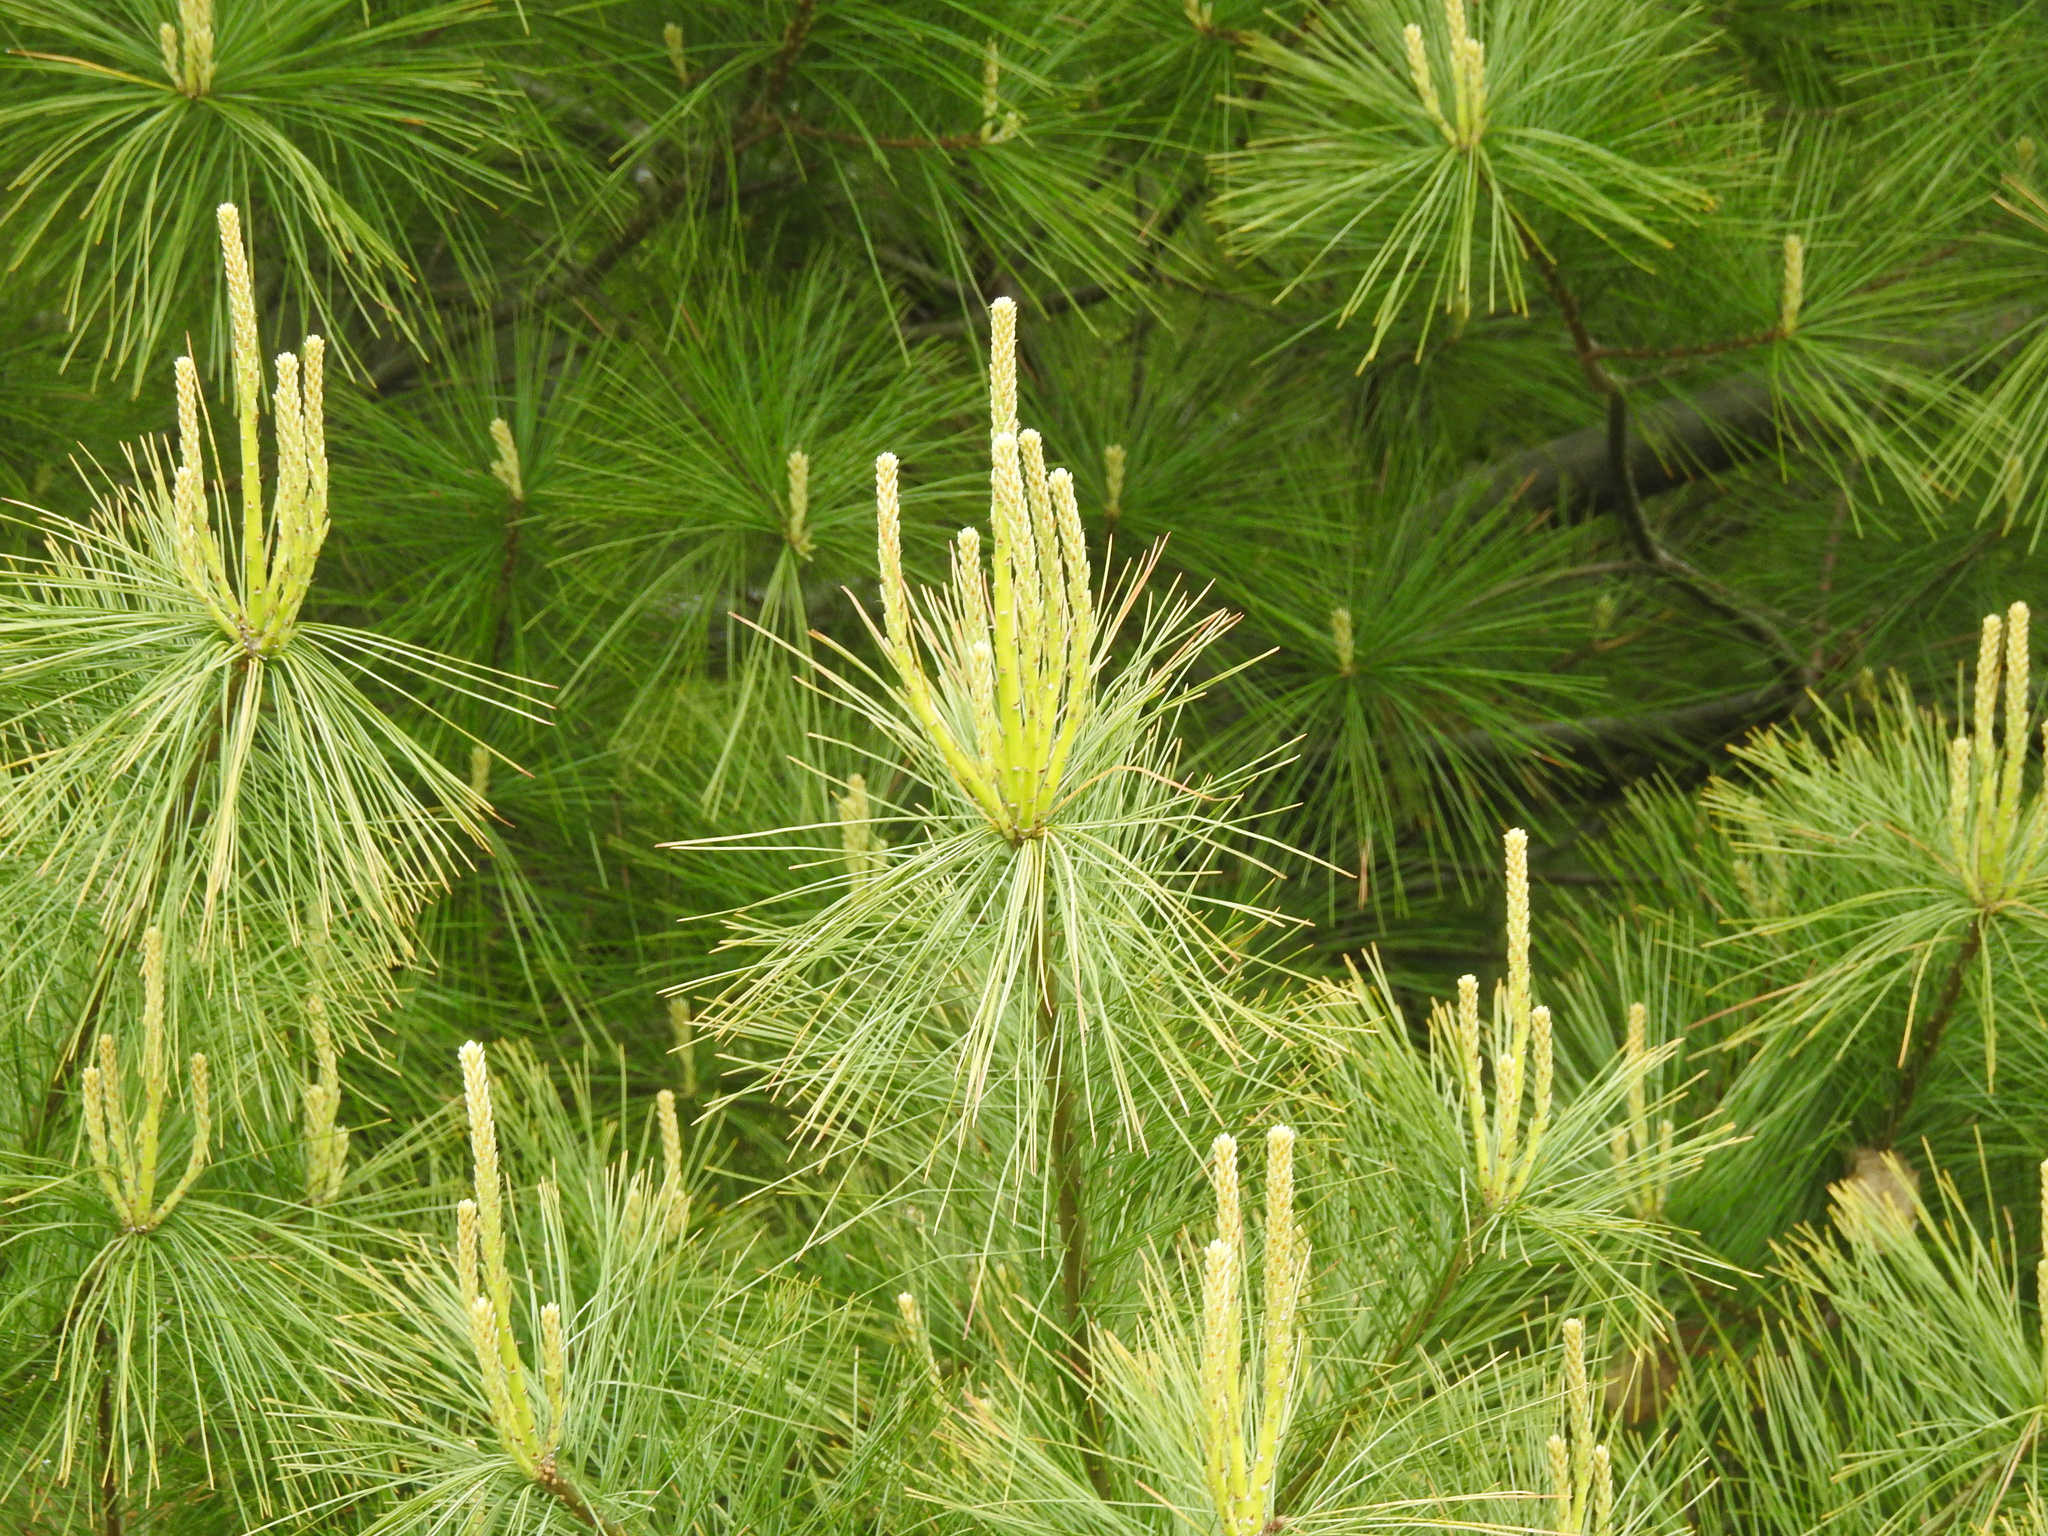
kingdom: Plantae
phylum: Tracheophyta
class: Pinopsida
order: Pinales
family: Pinaceae
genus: Pinus
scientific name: Pinus strobus
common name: Weymouth pine
